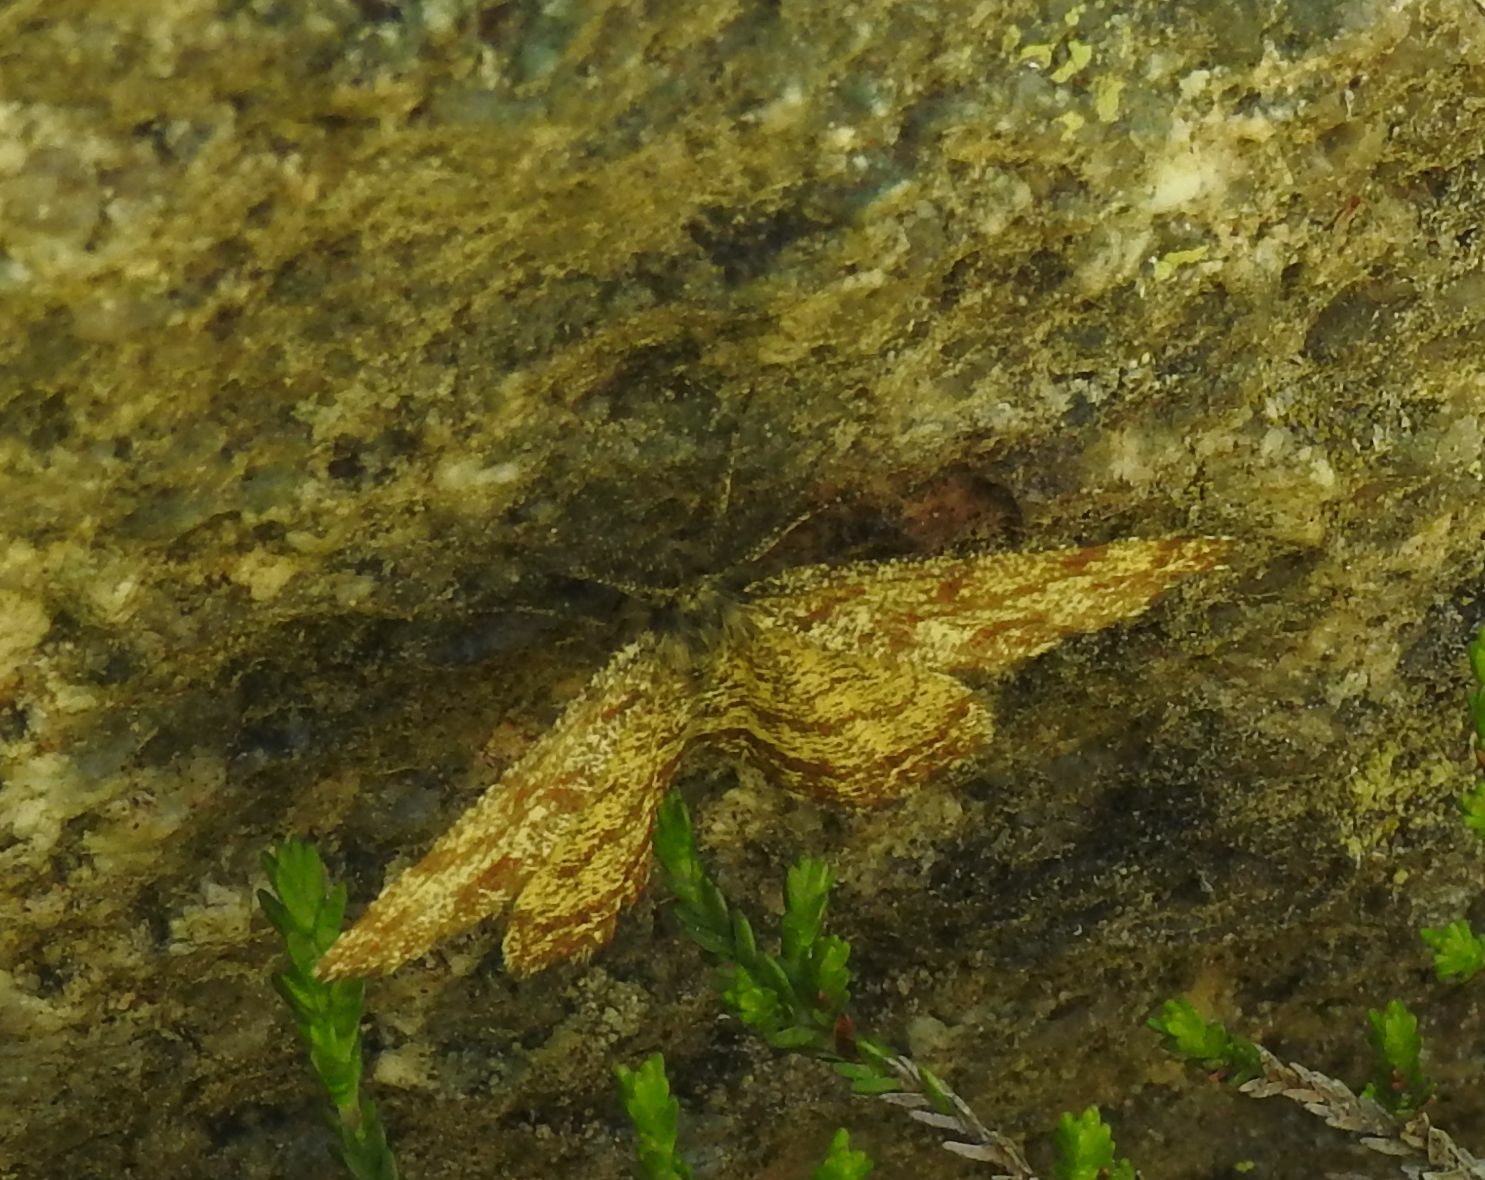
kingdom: Animalia
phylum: Arthropoda
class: Insecta
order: Lepidoptera
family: Geometridae
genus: Ematurga
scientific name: Ematurga atomaria
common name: Common heath
